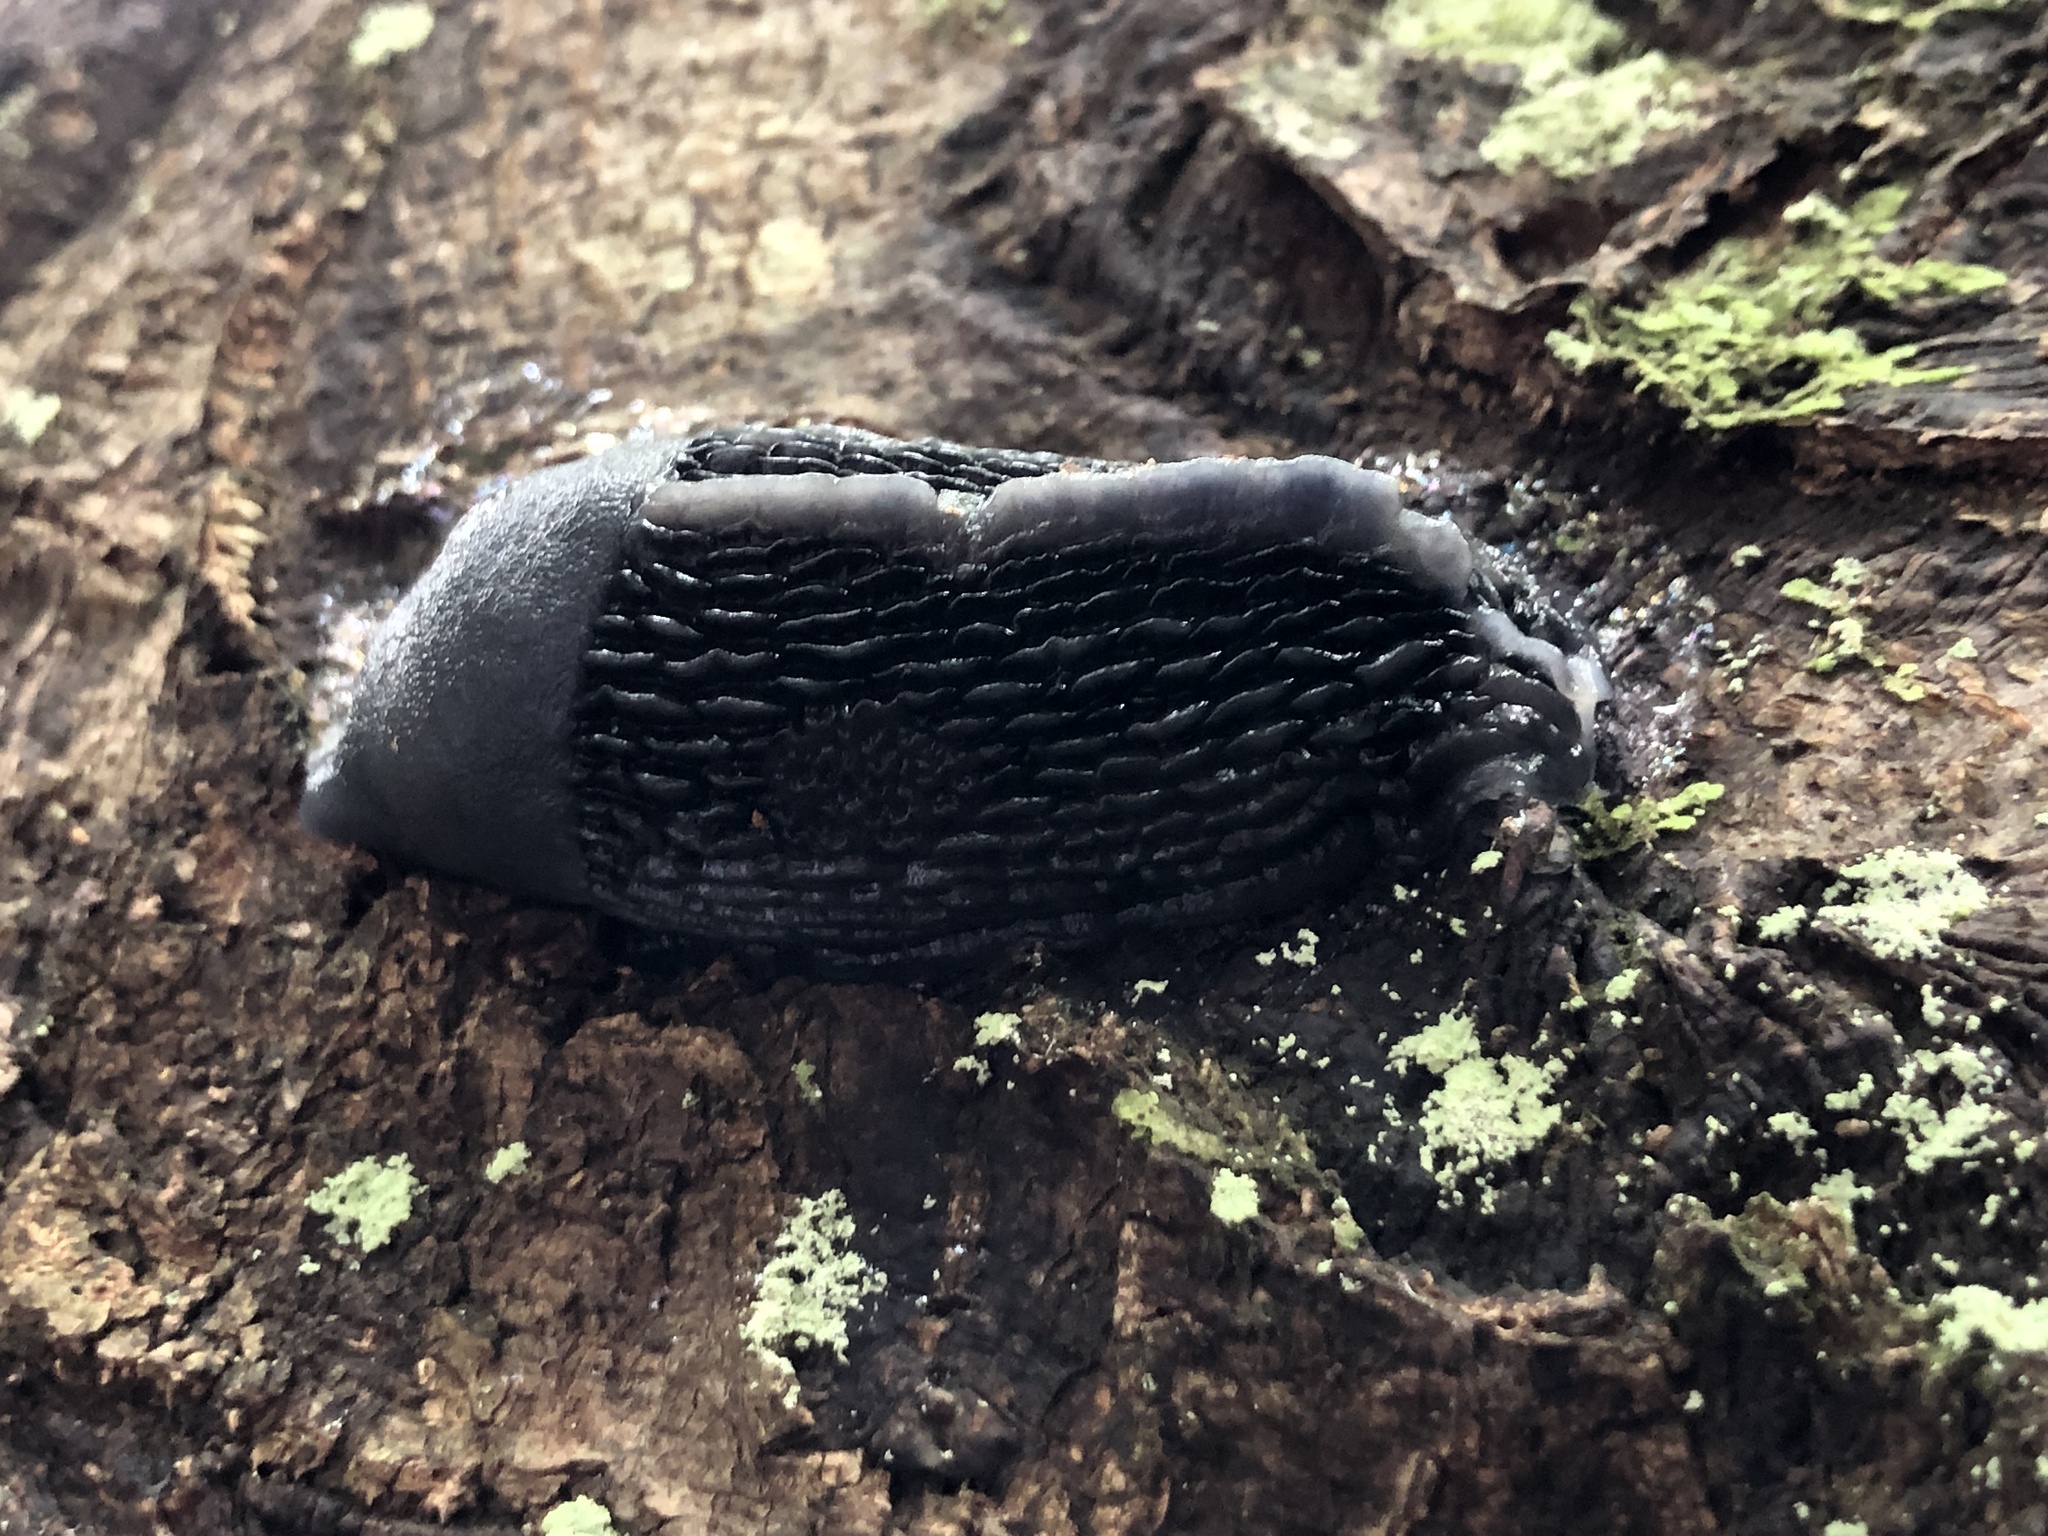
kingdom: Animalia
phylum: Mollusca
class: Gastropoda
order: Stylommatophora
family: Limacidae
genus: Gigantomilax
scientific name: Gigantomilax lederi
